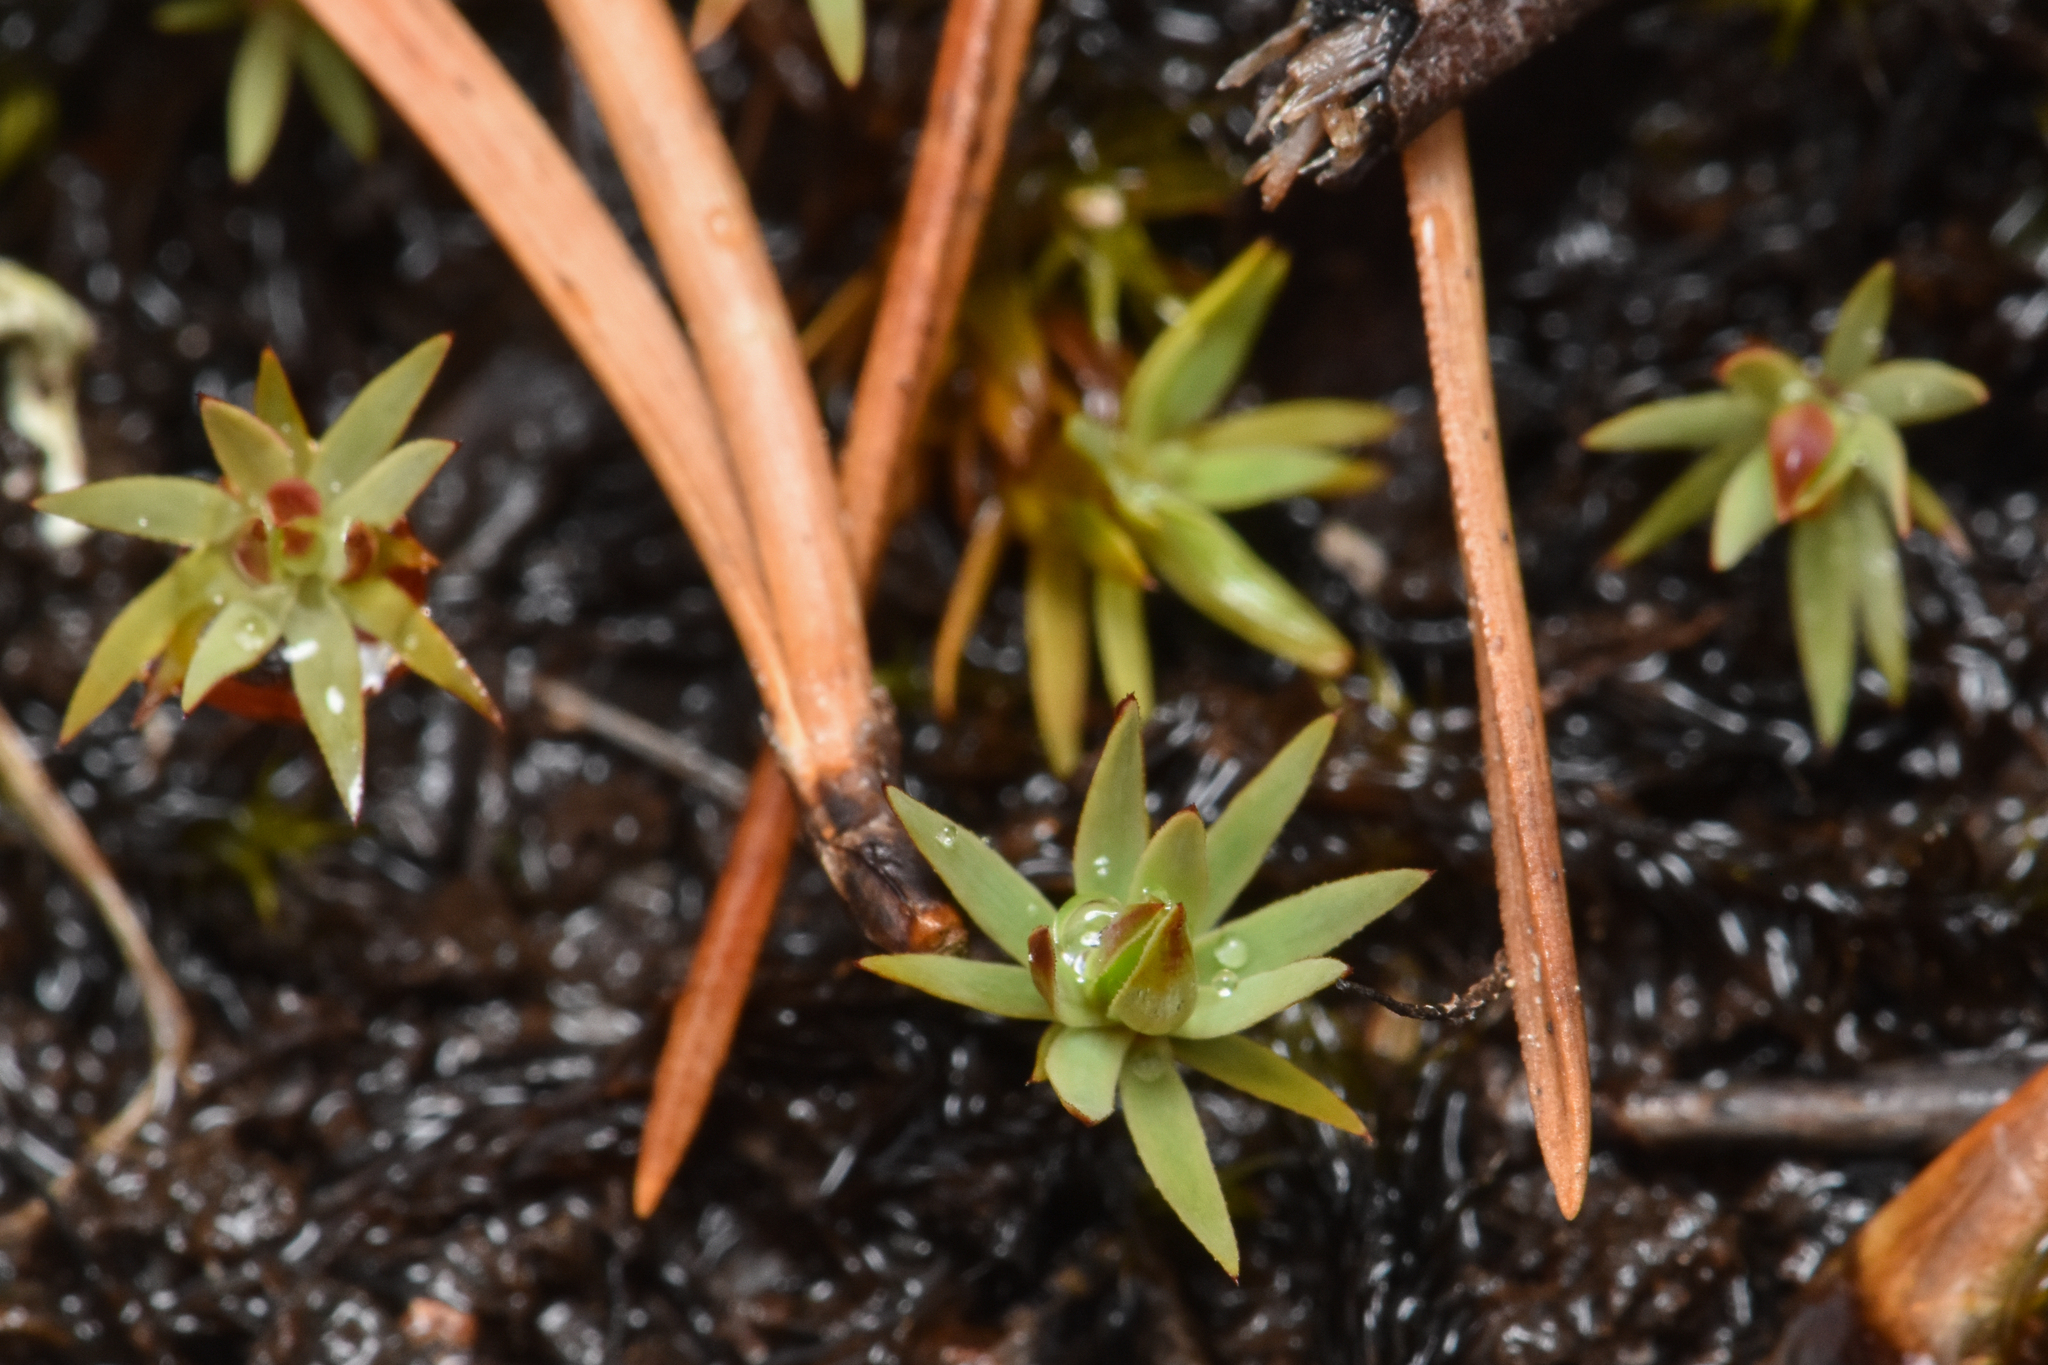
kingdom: Plantae
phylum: Bryophyta
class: Polytrichopsida
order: Polytrichales
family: Polytrichaceae
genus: Pogonatum
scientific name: Pogonatum urnigerum
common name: Urn hair moss
